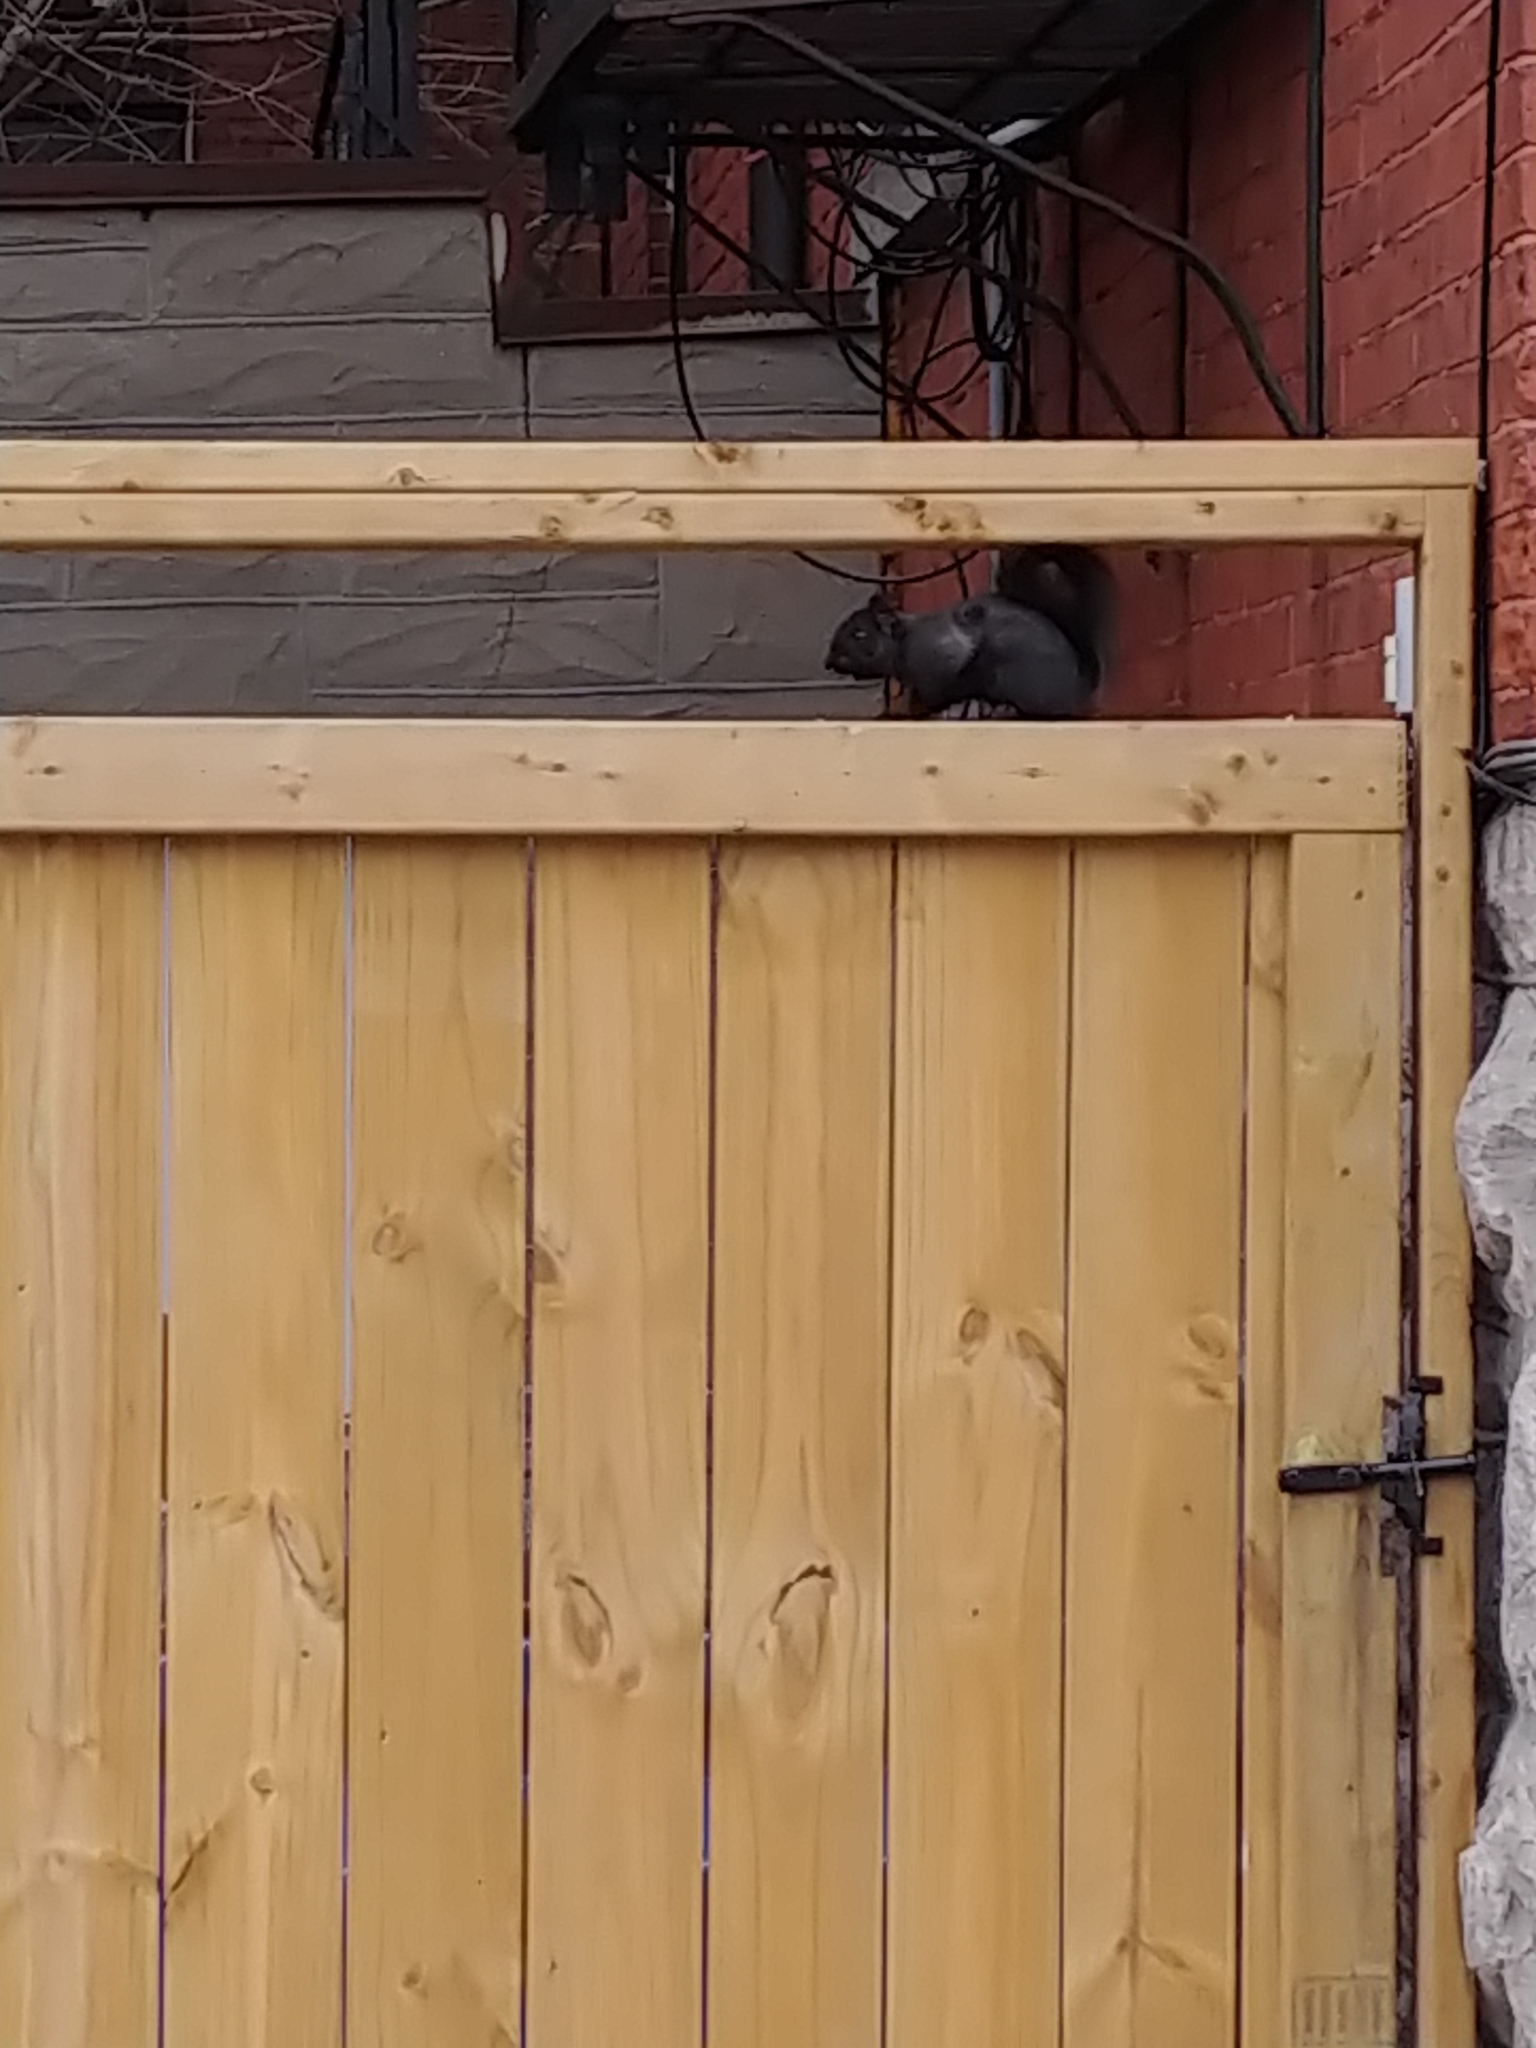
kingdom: Animalia
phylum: Chordata
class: Mammalia
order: Rodentia
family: Sciuridae
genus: Sciurus
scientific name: Sciurus carolinensis
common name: Eastern gray squirrel
